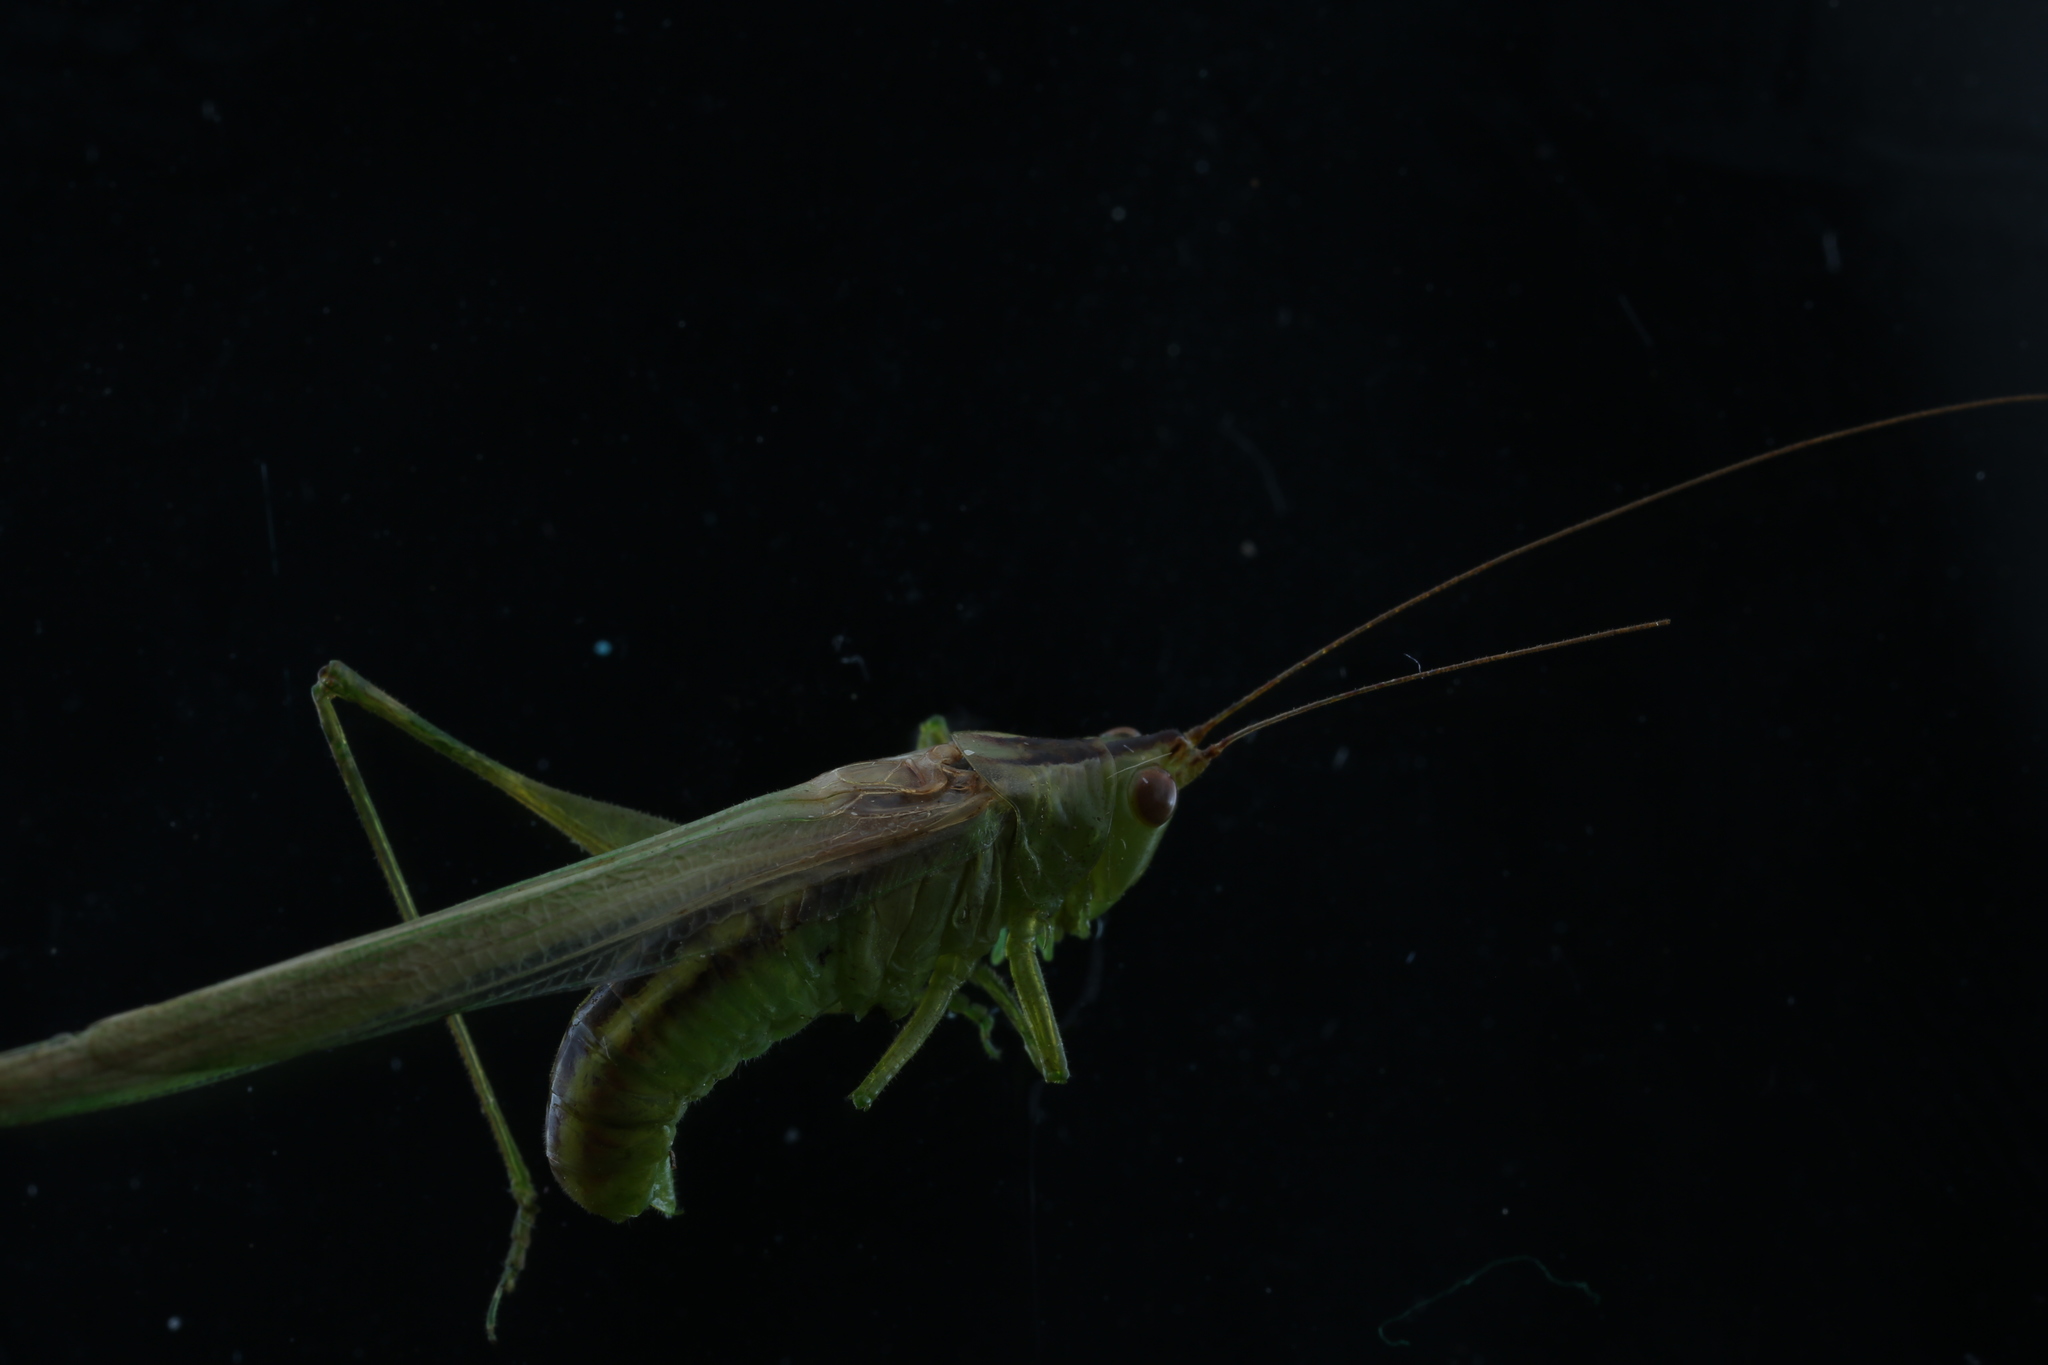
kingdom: Animalia
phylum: Arthropoda
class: Insecta
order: Orthoptera
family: Tettigoniidae
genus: Conocephalus
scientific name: Conocephalus fasciatus
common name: Slender meadow katydid
